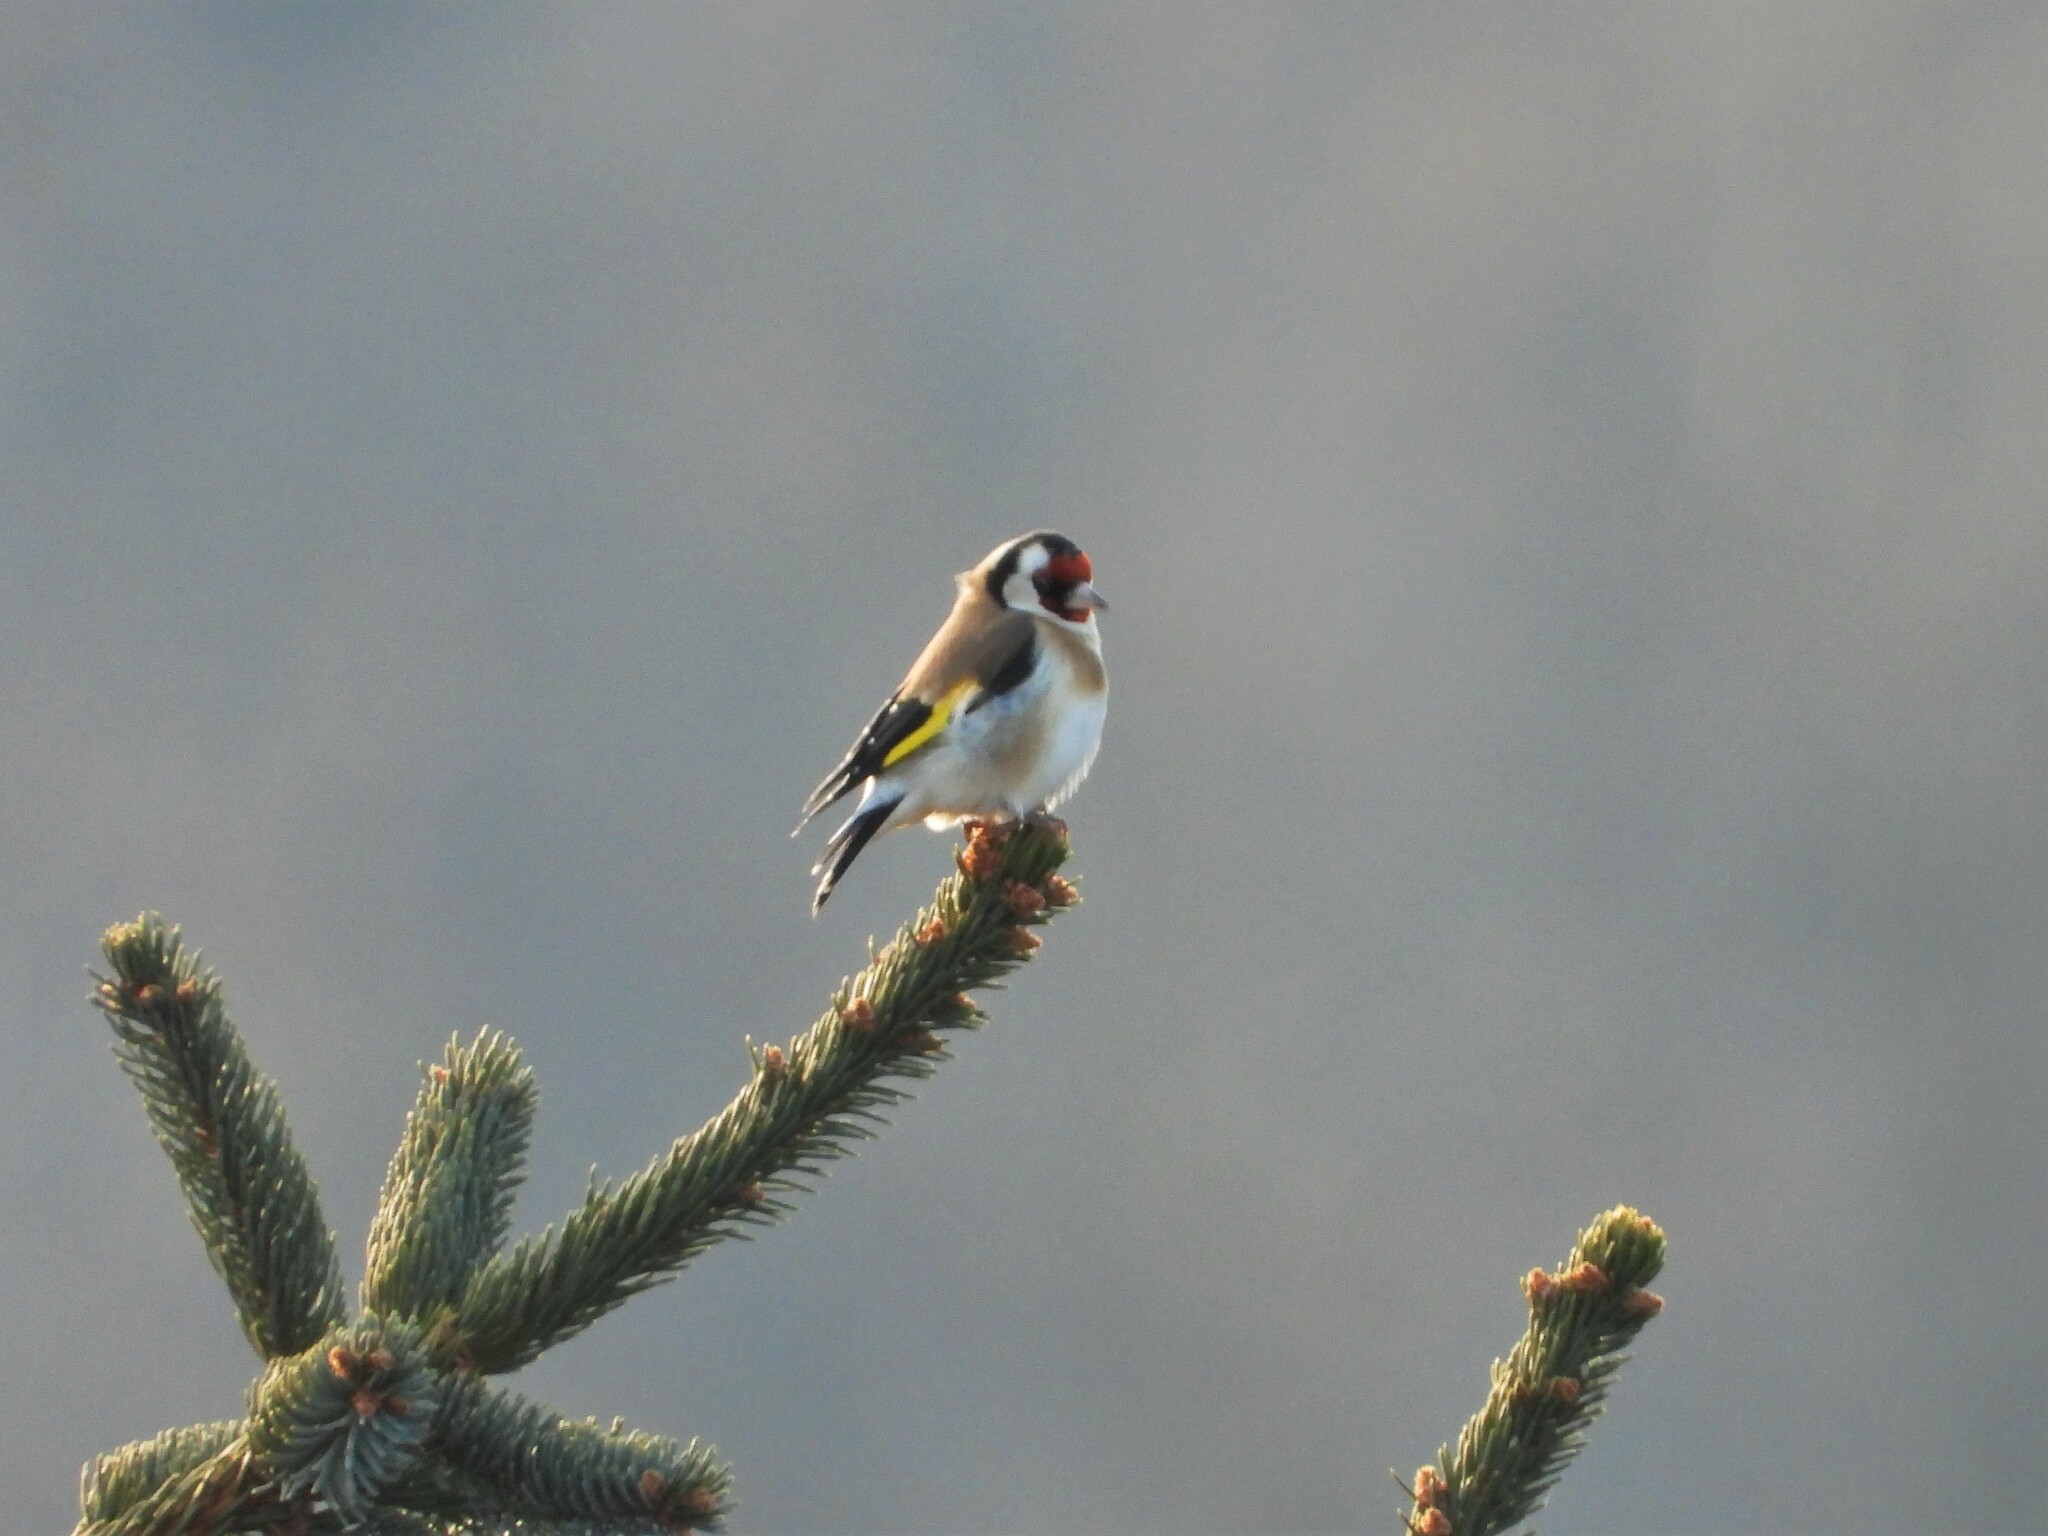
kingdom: Animalia
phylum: Chordata
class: Aves
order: Passeriformes
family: Fringillidae
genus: Carduelis
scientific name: Carduelis carduelis
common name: European goldfinch
